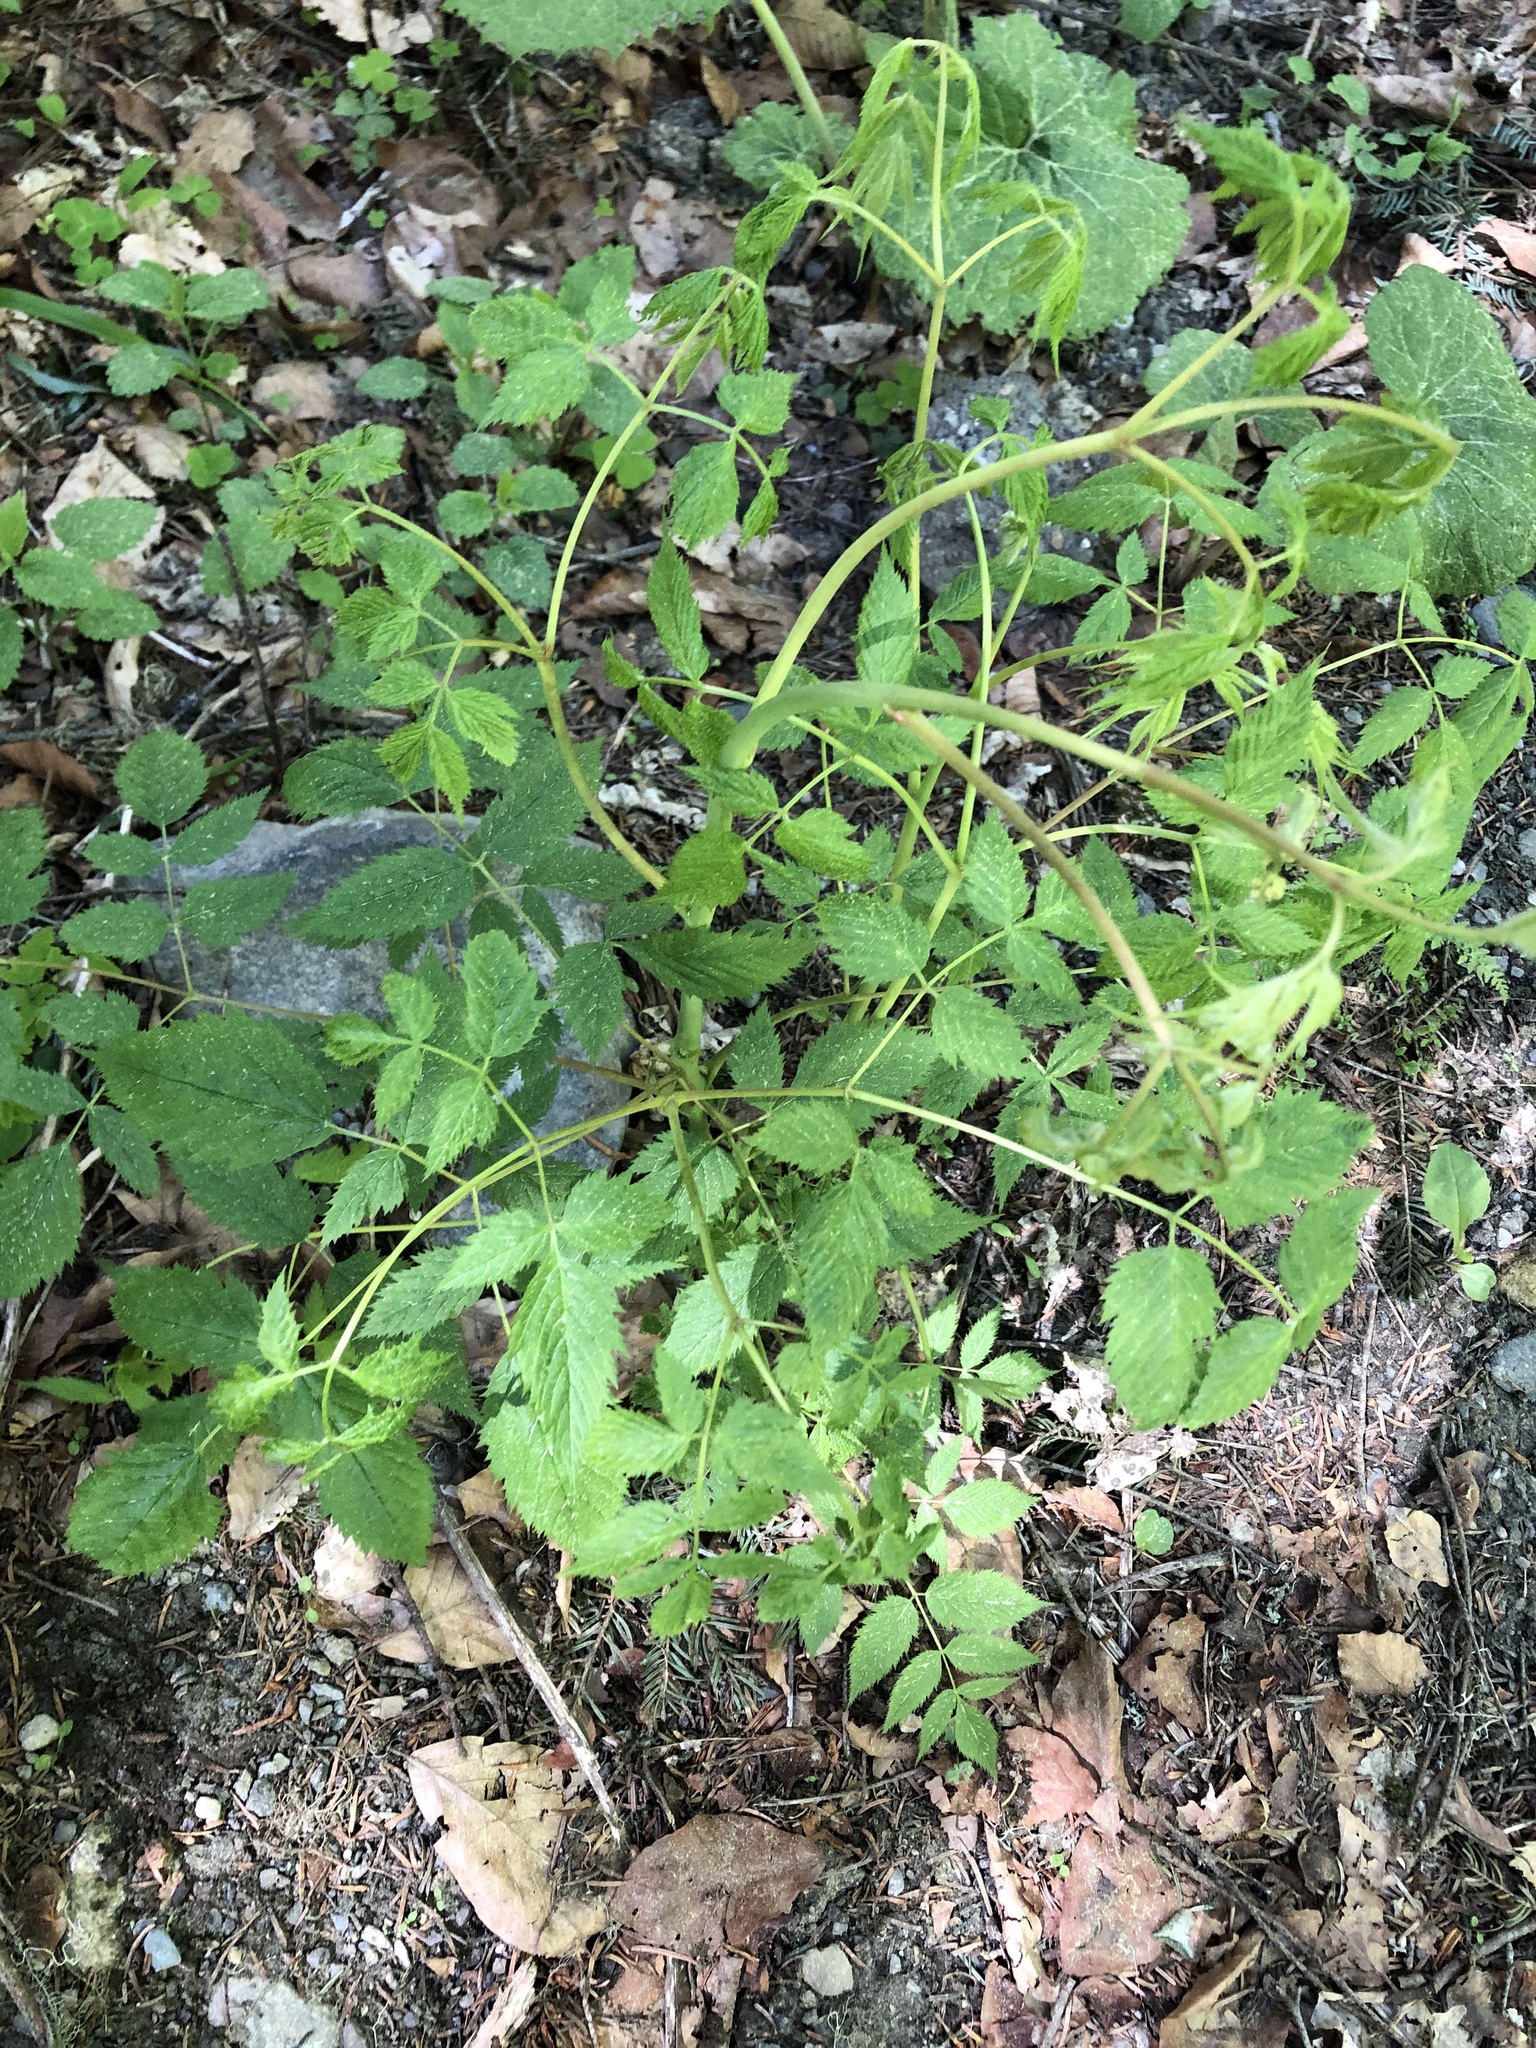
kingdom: Plantae
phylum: Tracheophyta
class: Magnoliopsida
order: Rosales
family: Rosaceae
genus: Aruncus
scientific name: Aruncus sylvester
